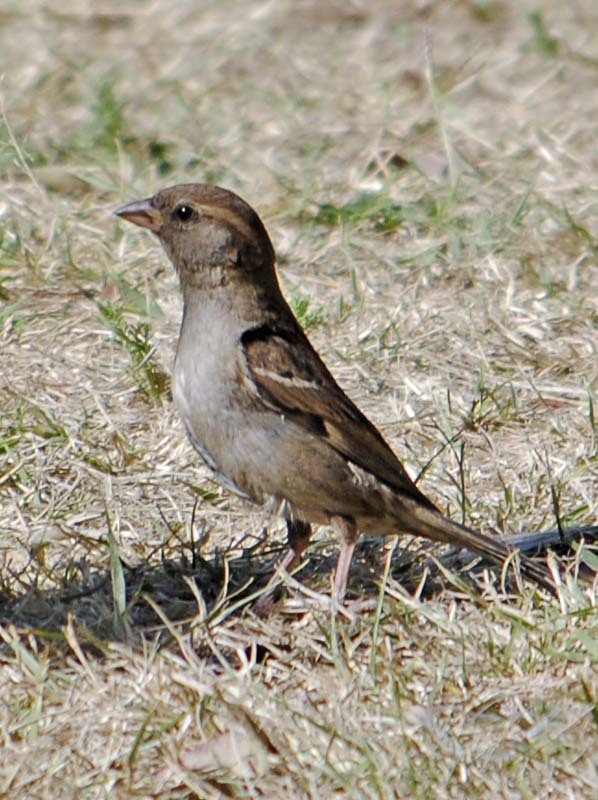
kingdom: Animalia
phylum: Chordata
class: Aves
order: Passeriformes
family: Passeridae
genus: Passer
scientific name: Passer domesticus
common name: House sparrow
